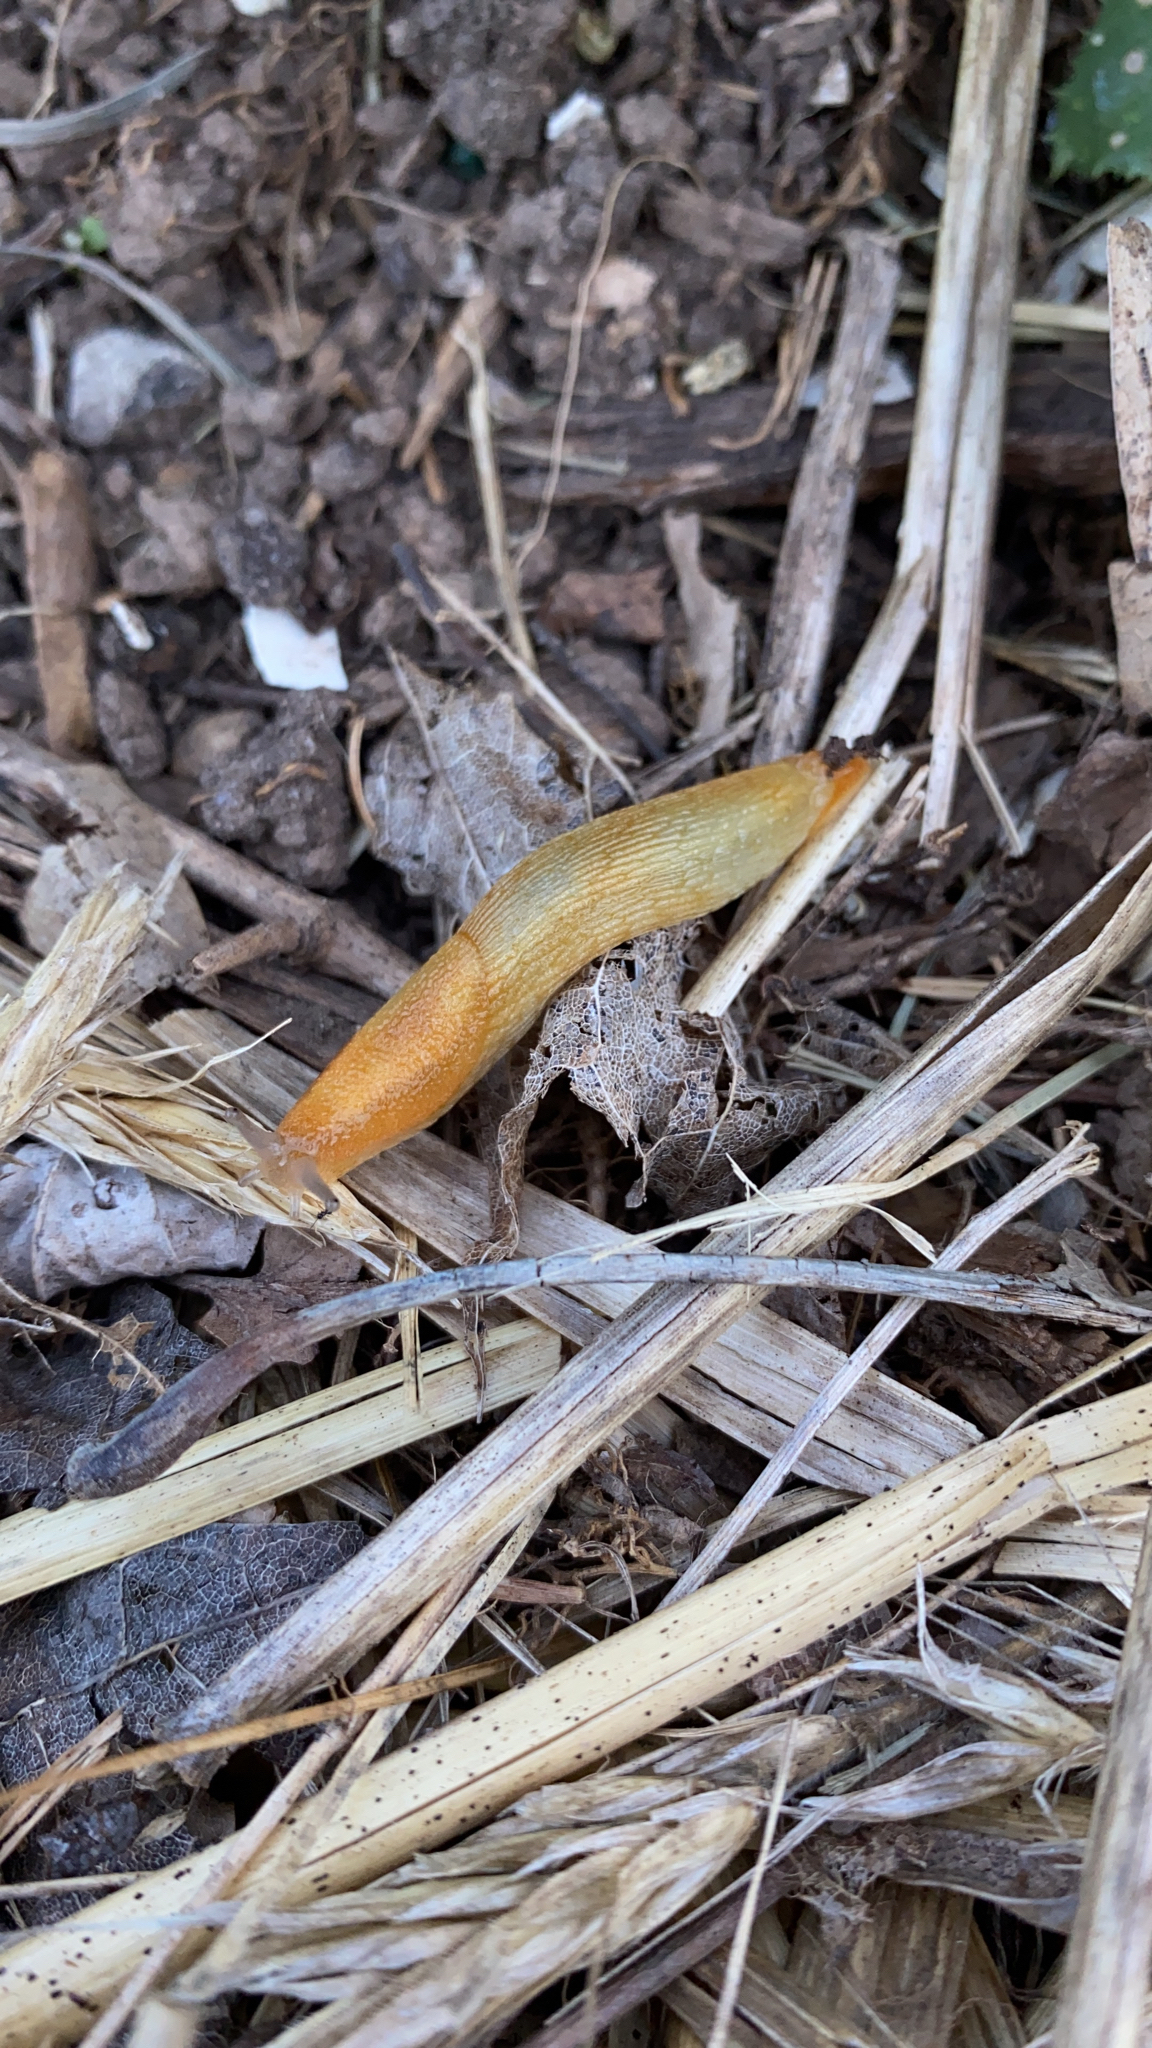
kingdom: Animalia
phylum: Mollusca
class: Gastropoda
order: Stylommatophora
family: Arionidae
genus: Arion
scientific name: Arion subfuscus
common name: Dusky arion
